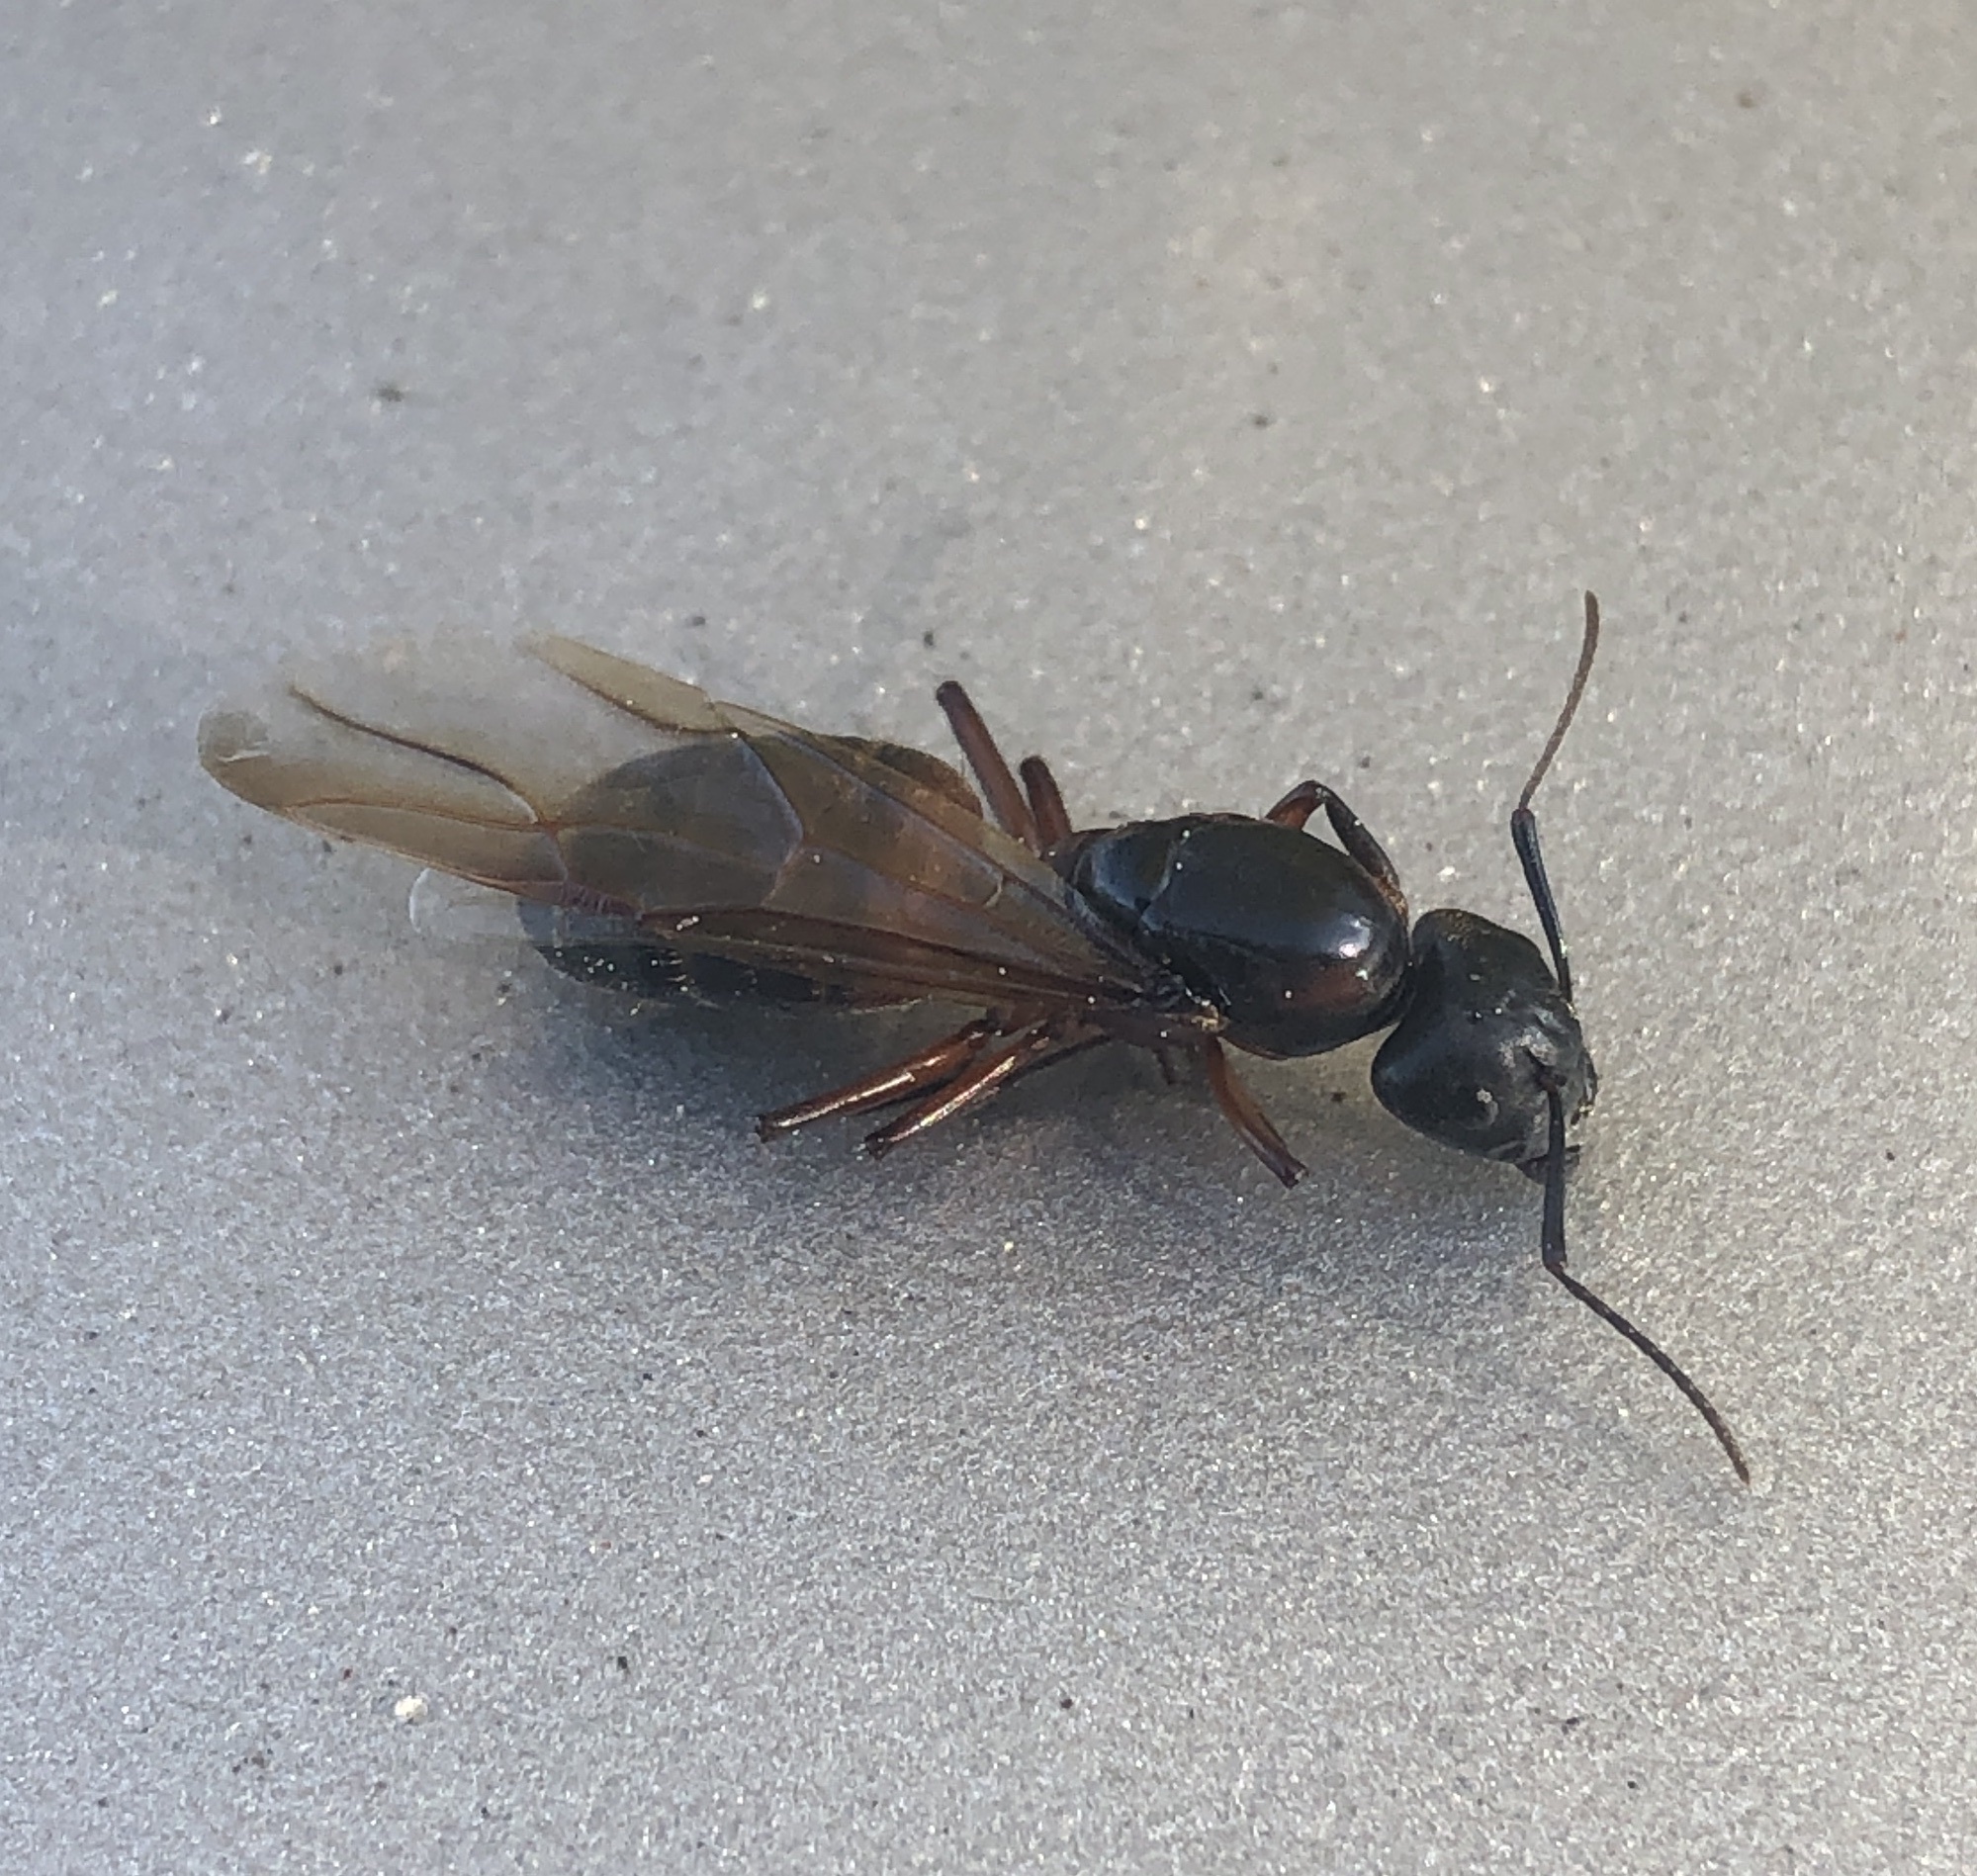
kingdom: Animalia
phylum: Arthropoda
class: Insecta
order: Hymenoptera
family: Formicidae
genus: Camponotus
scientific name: Camponotus chromaiodes
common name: Red carpenter ant
